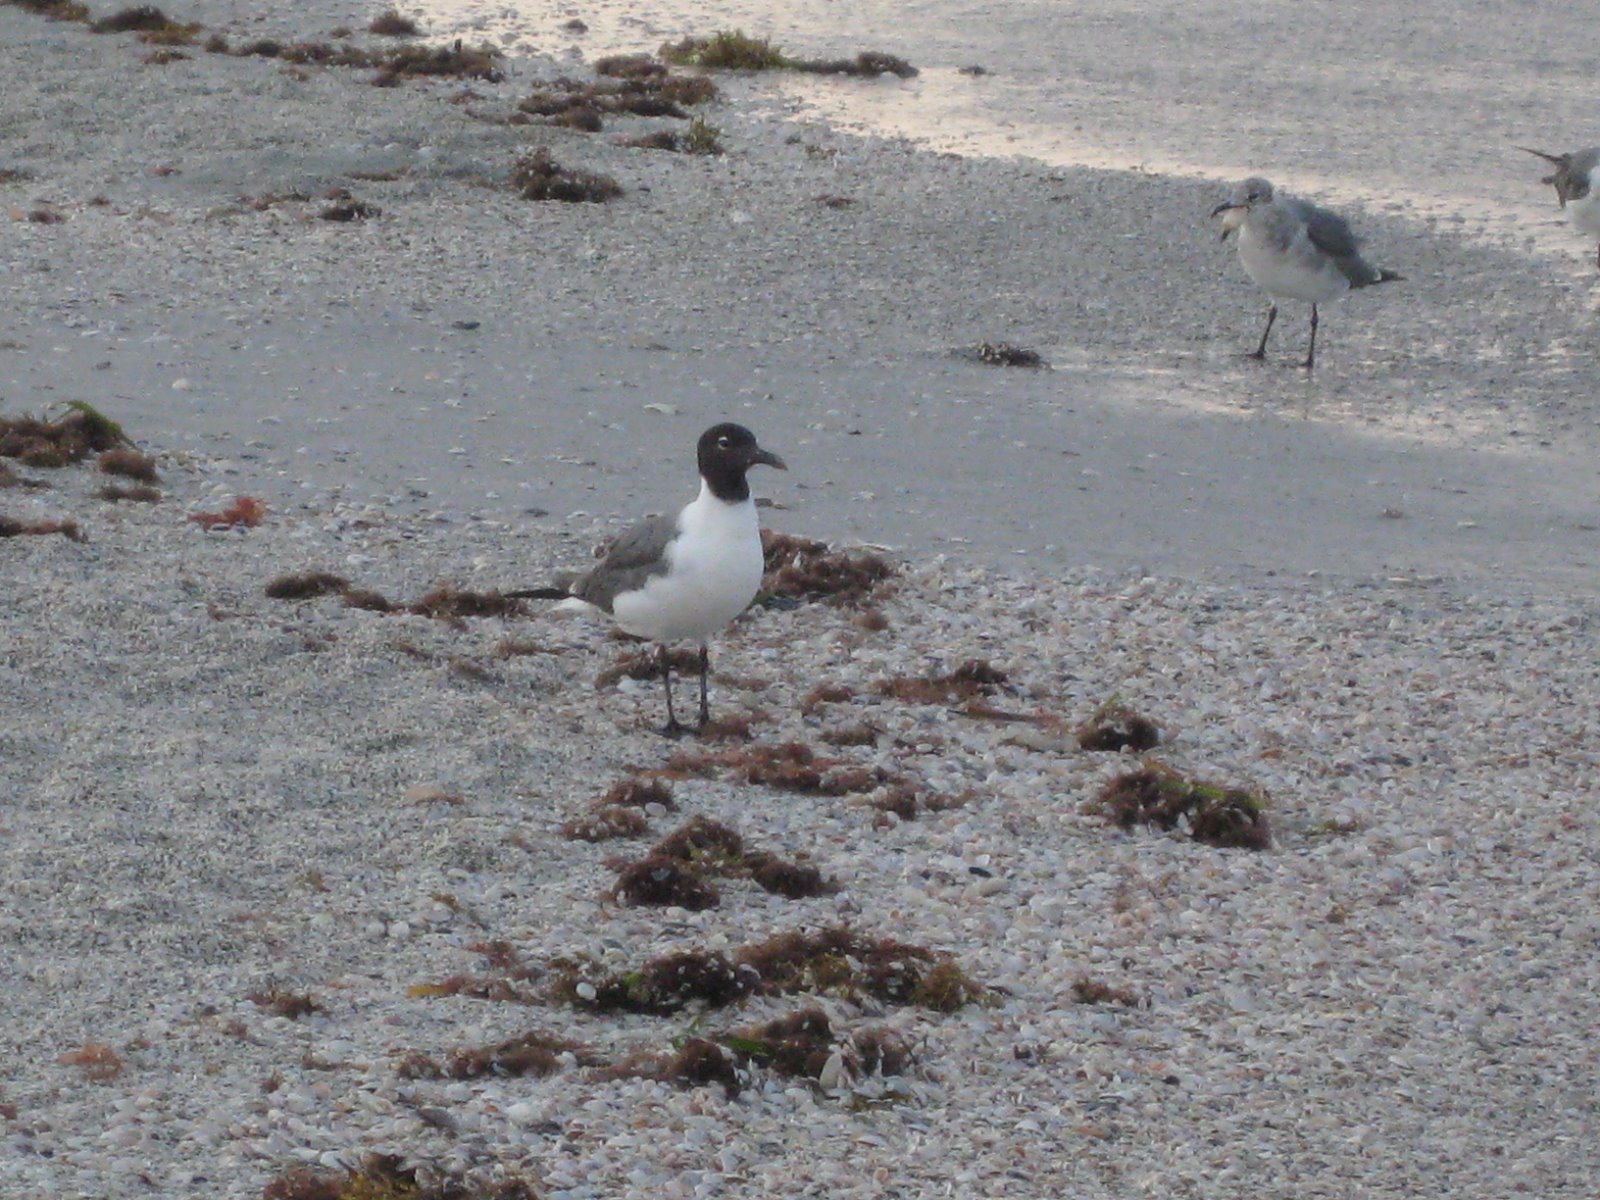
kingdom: Animalia
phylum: Chordata
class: Aves
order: Charadriiformes
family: Laridae
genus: Leucophaeus
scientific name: Leucophaeus atricilla
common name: Laughing gull
